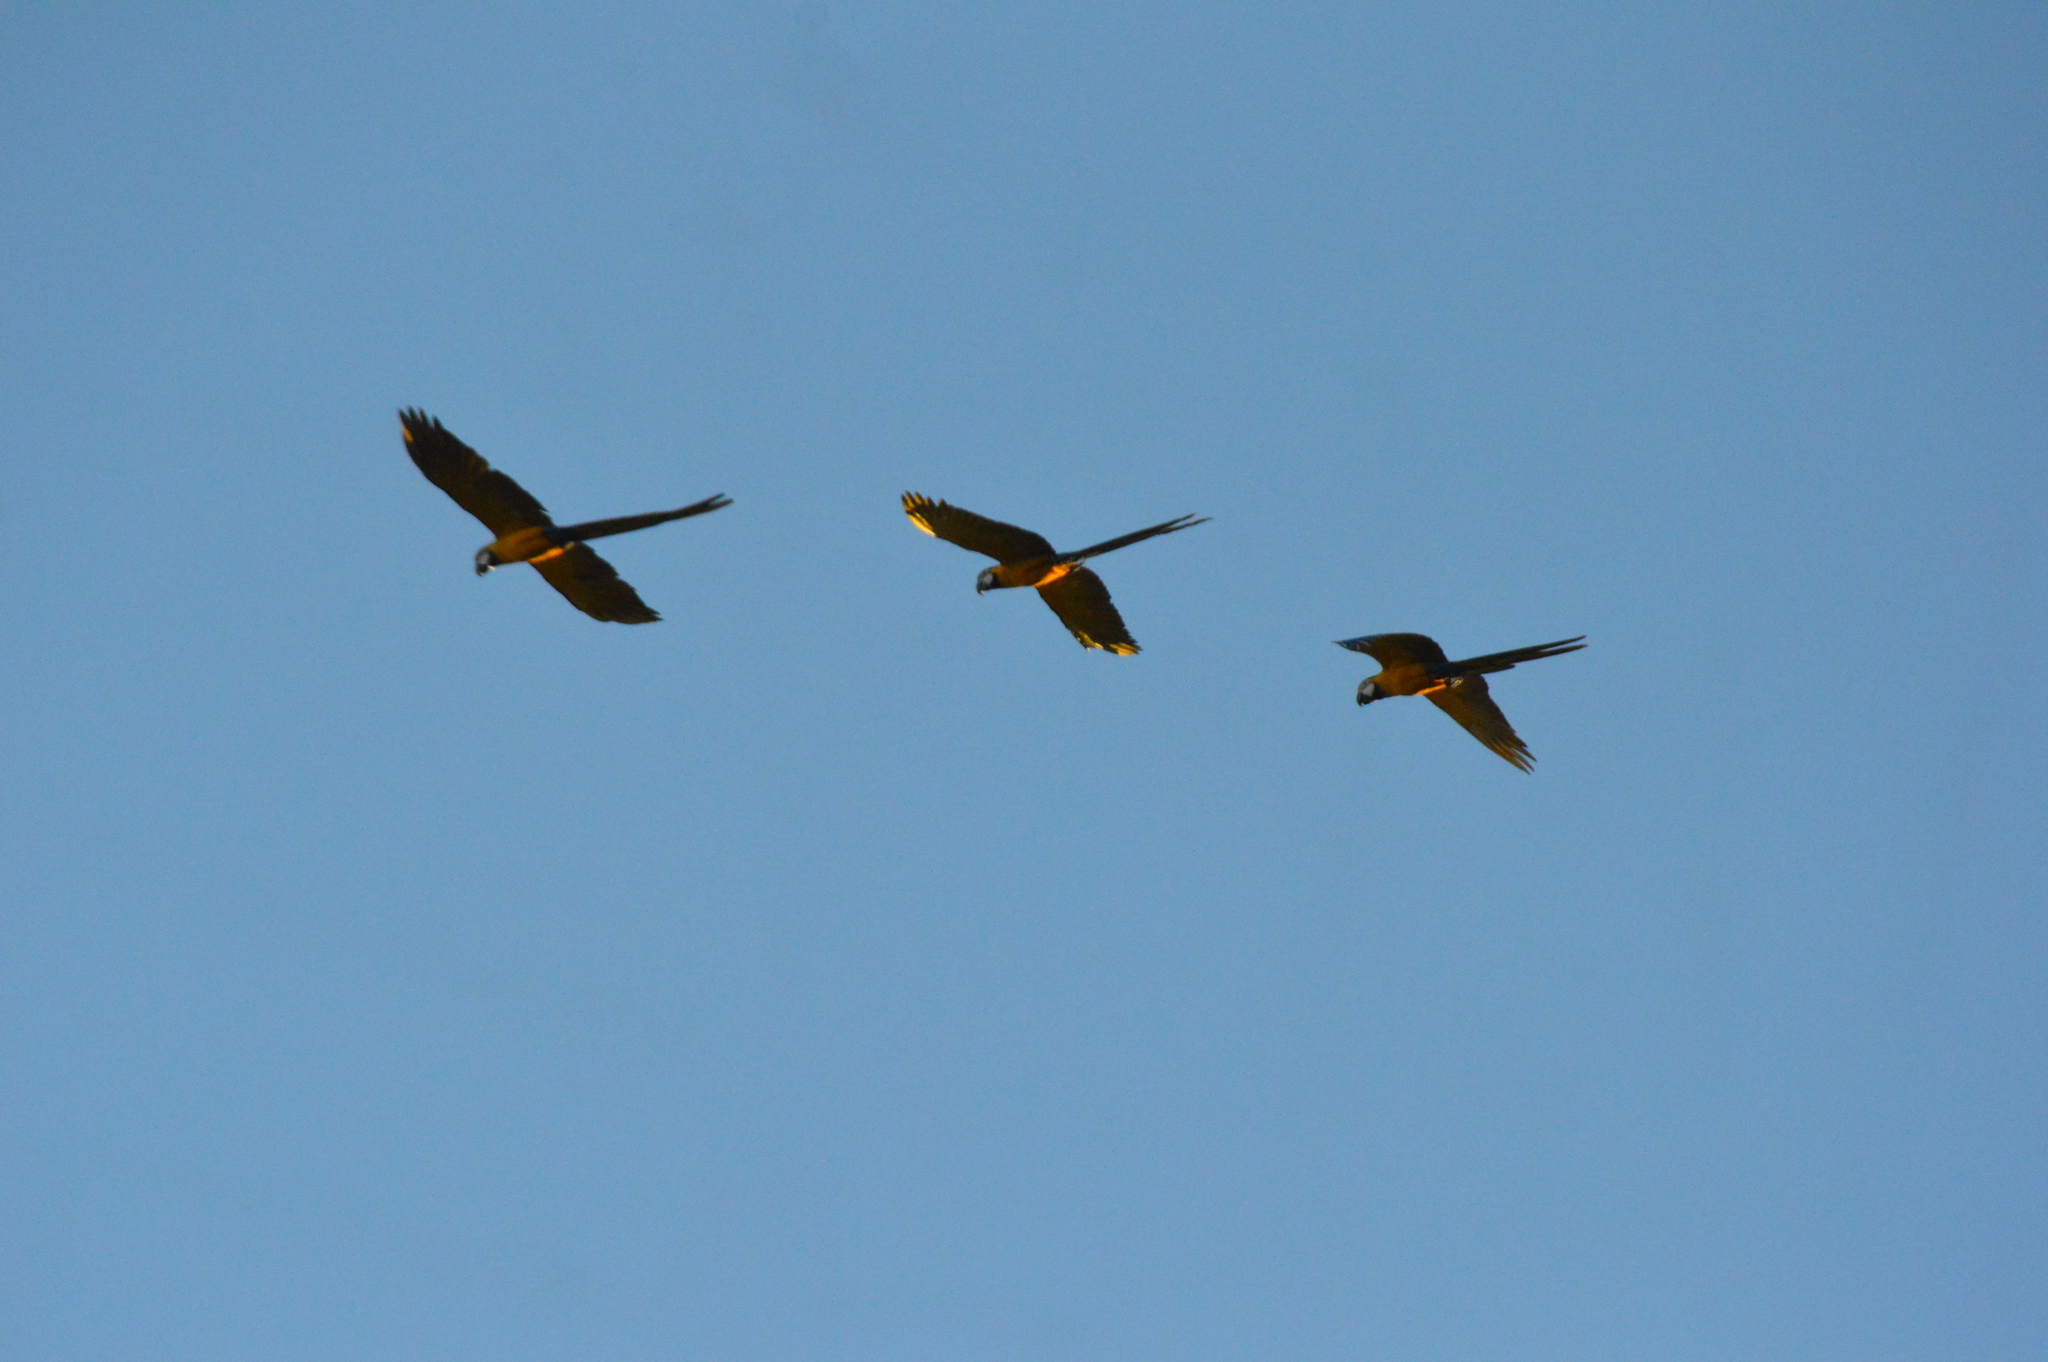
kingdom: Animalia
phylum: Chordata
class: Aves
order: Psittaciformes
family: Psittacidae
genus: Ara
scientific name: Ara ararauna
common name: Blue-and-yellow macaw
